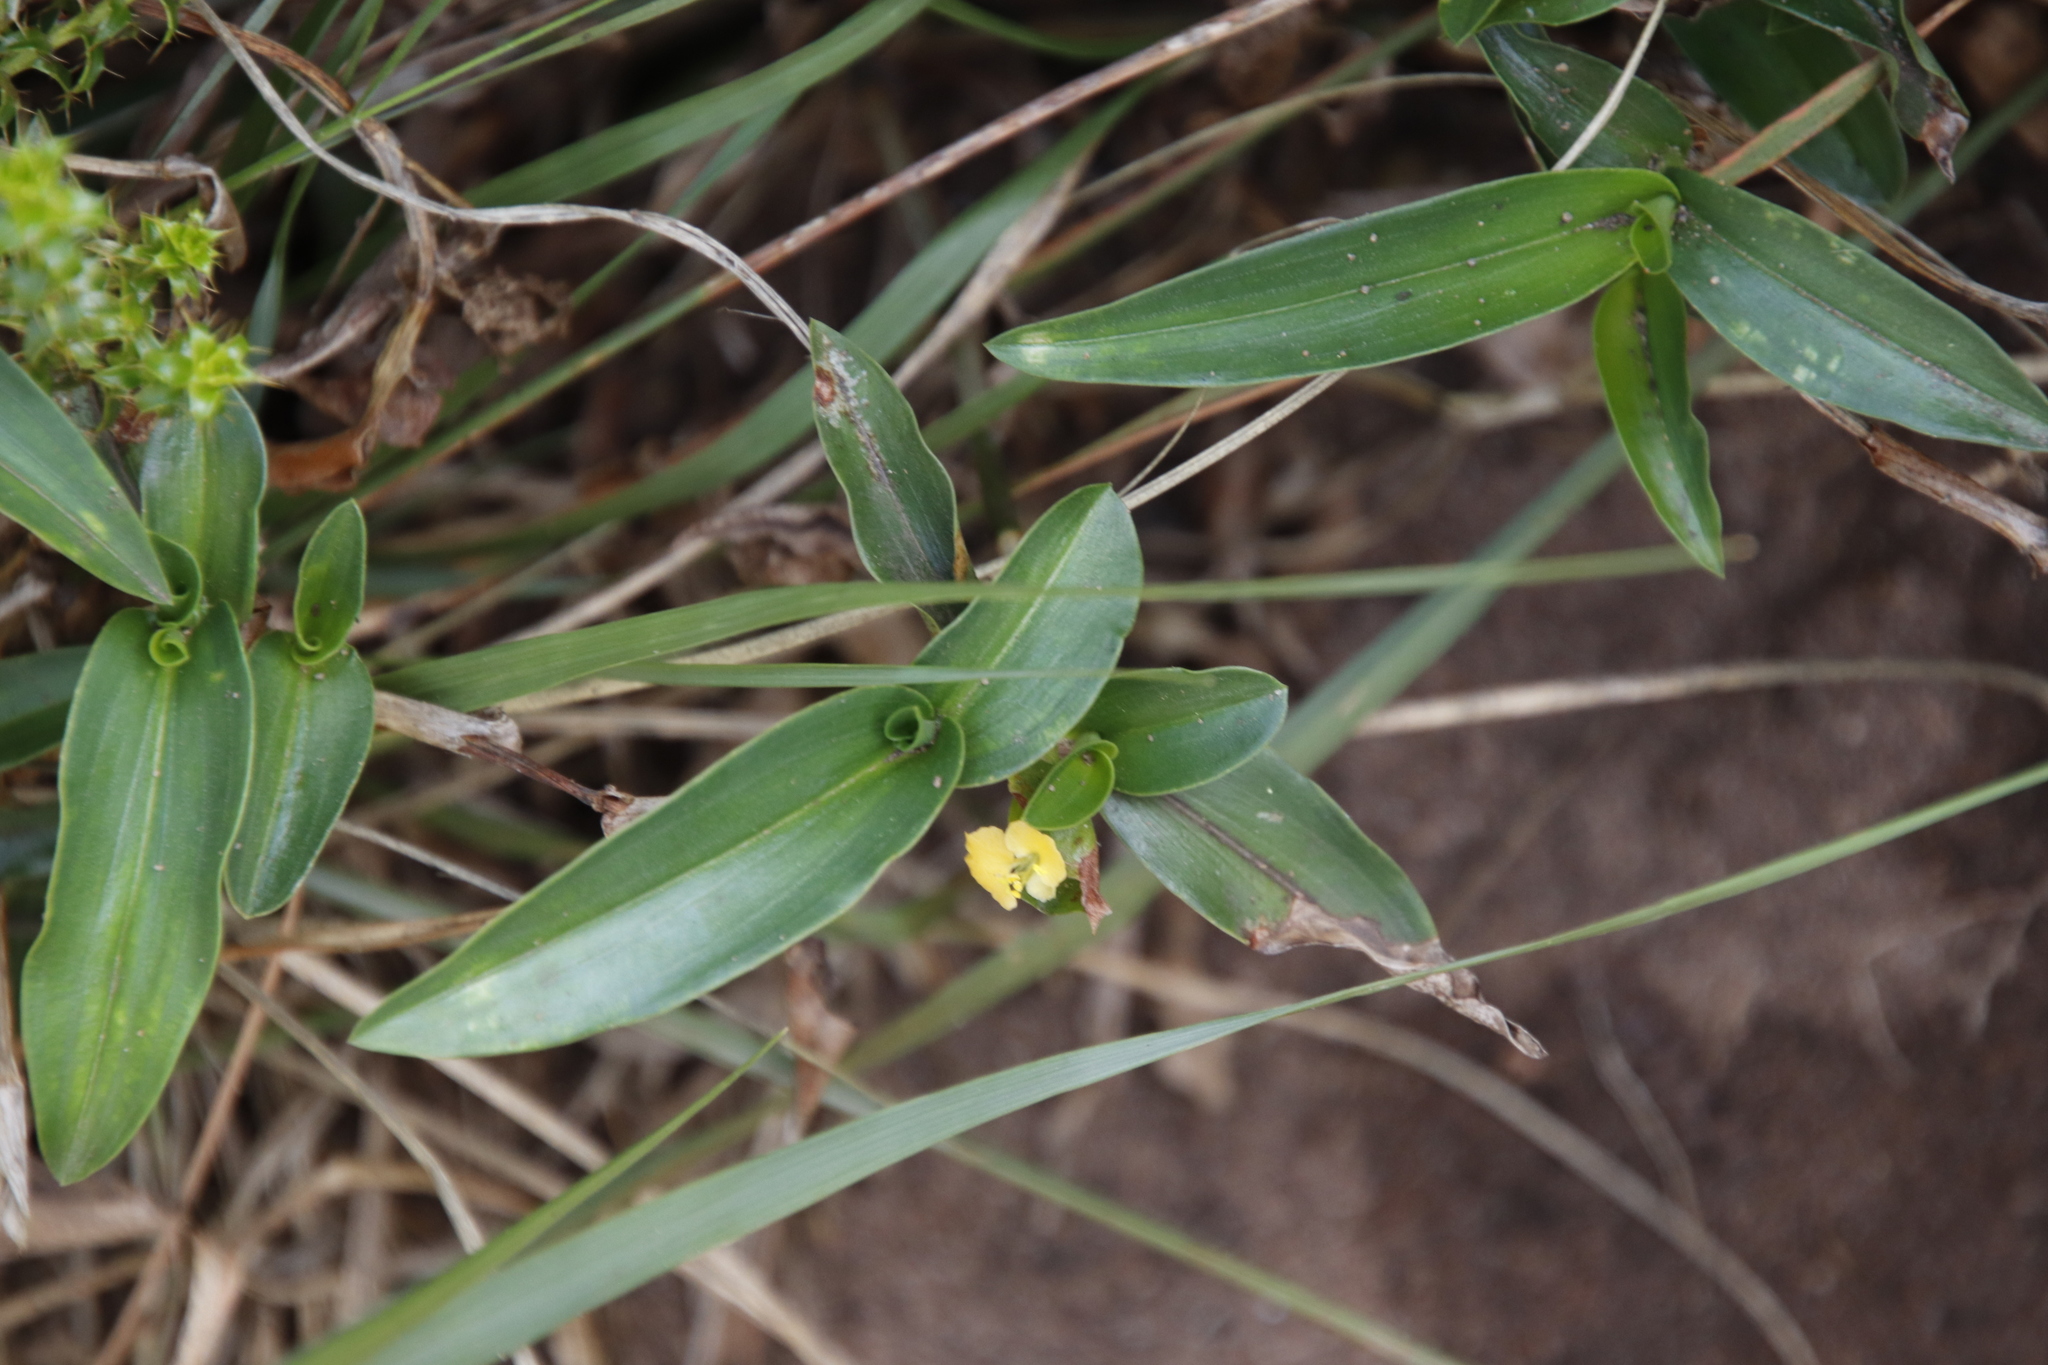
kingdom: Plantae
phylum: Tracheophyta
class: Liliopsida
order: Commelinales
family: Commelinaceae
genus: Commelina
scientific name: Commelina africana
